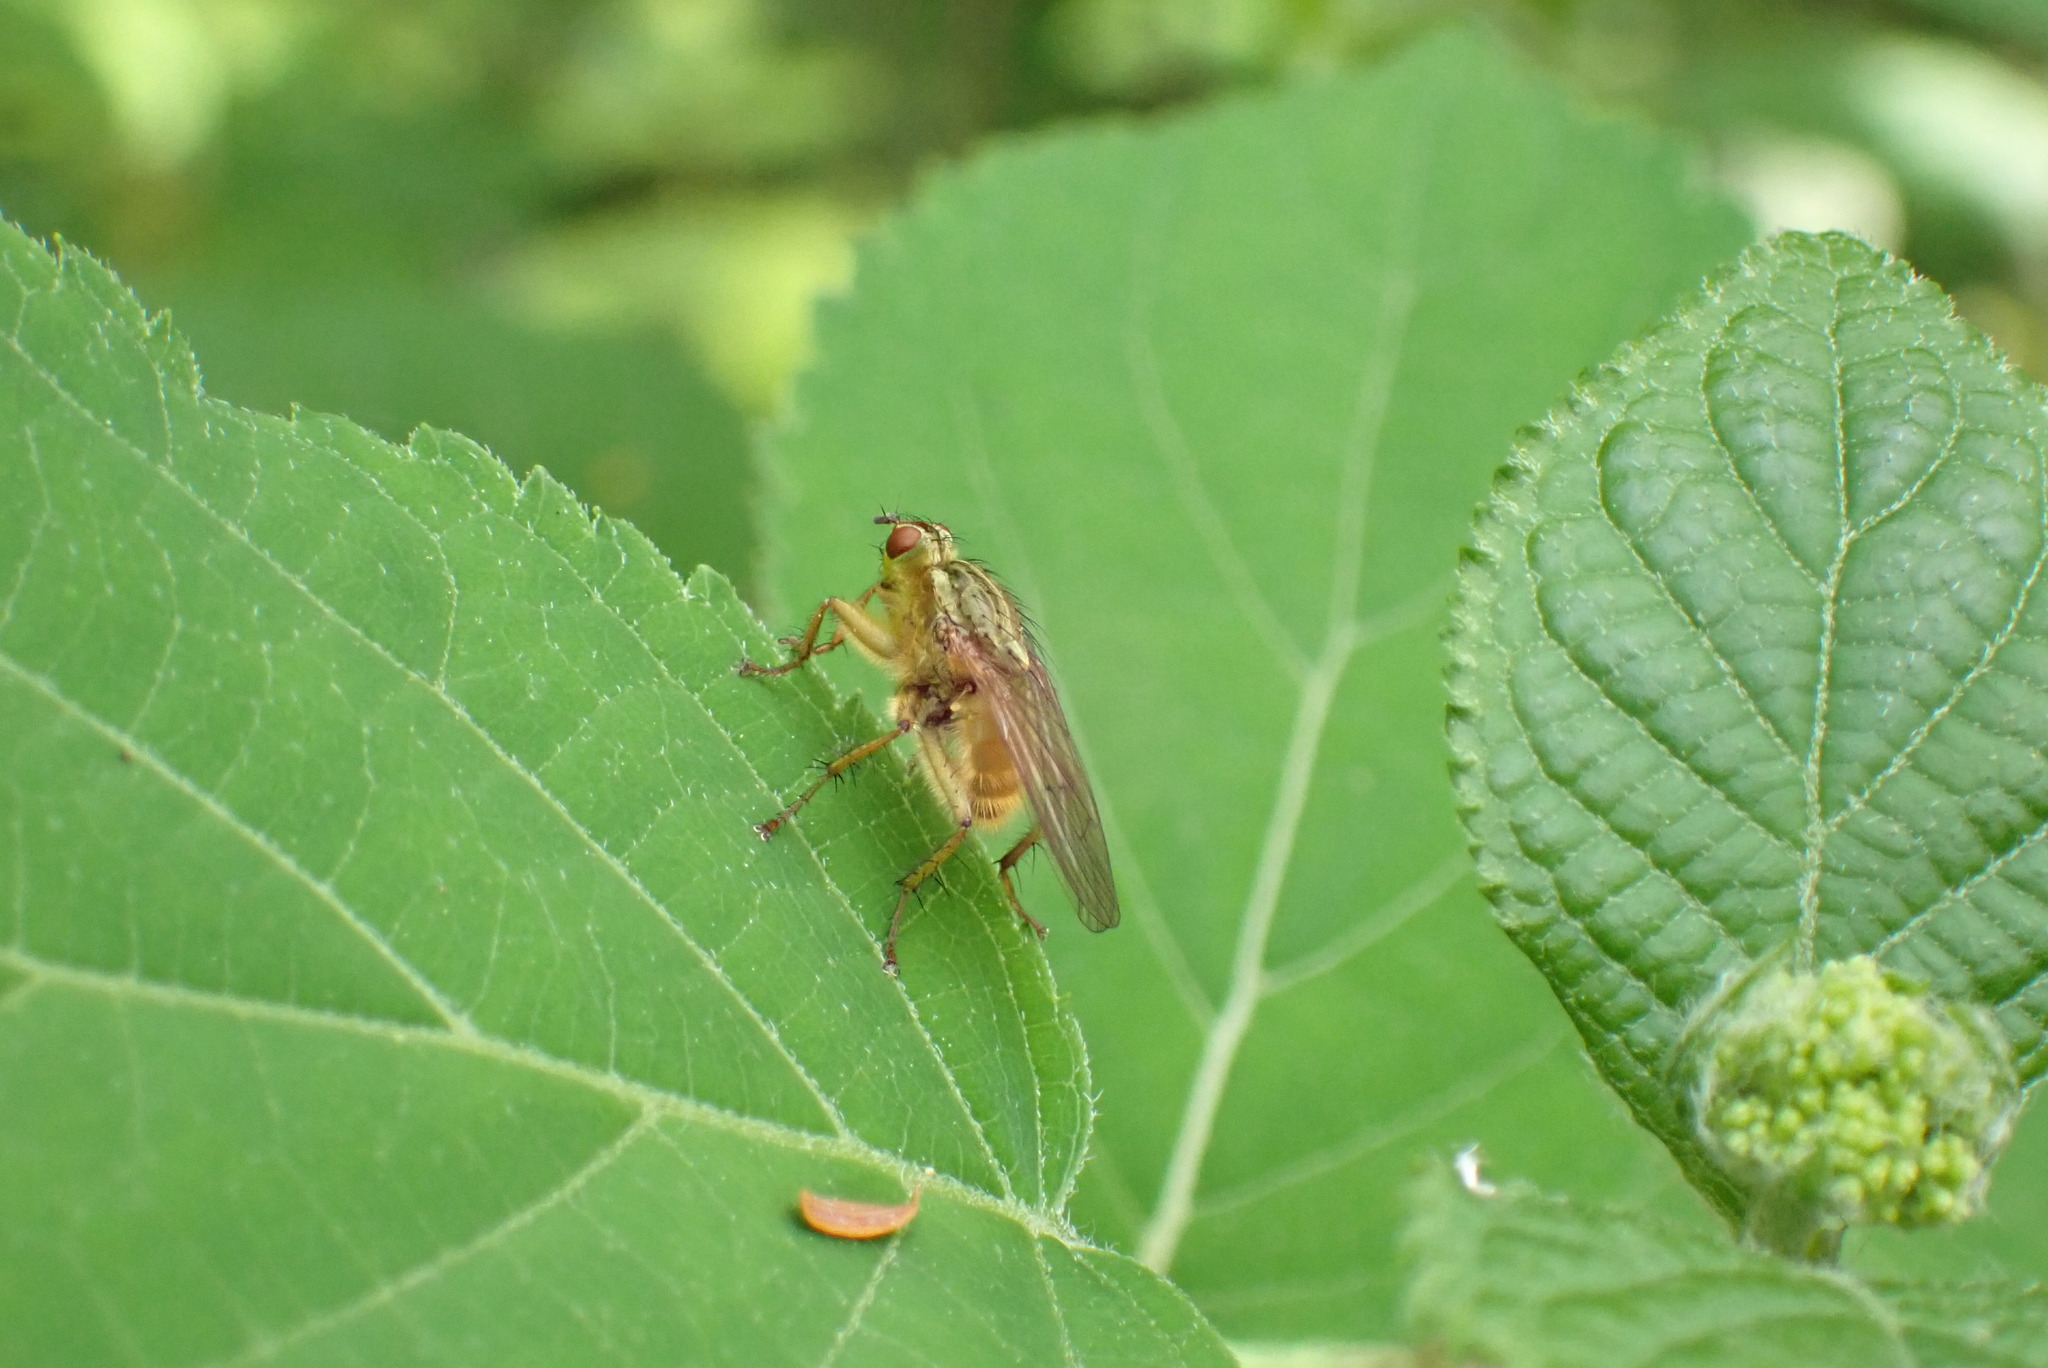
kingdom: Animalia
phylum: Arthropoda
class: Insecta
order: Diptera
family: Scathophagidae
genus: Scathophaga
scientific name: Scathophaga stercoraria
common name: Yellow dung fly
